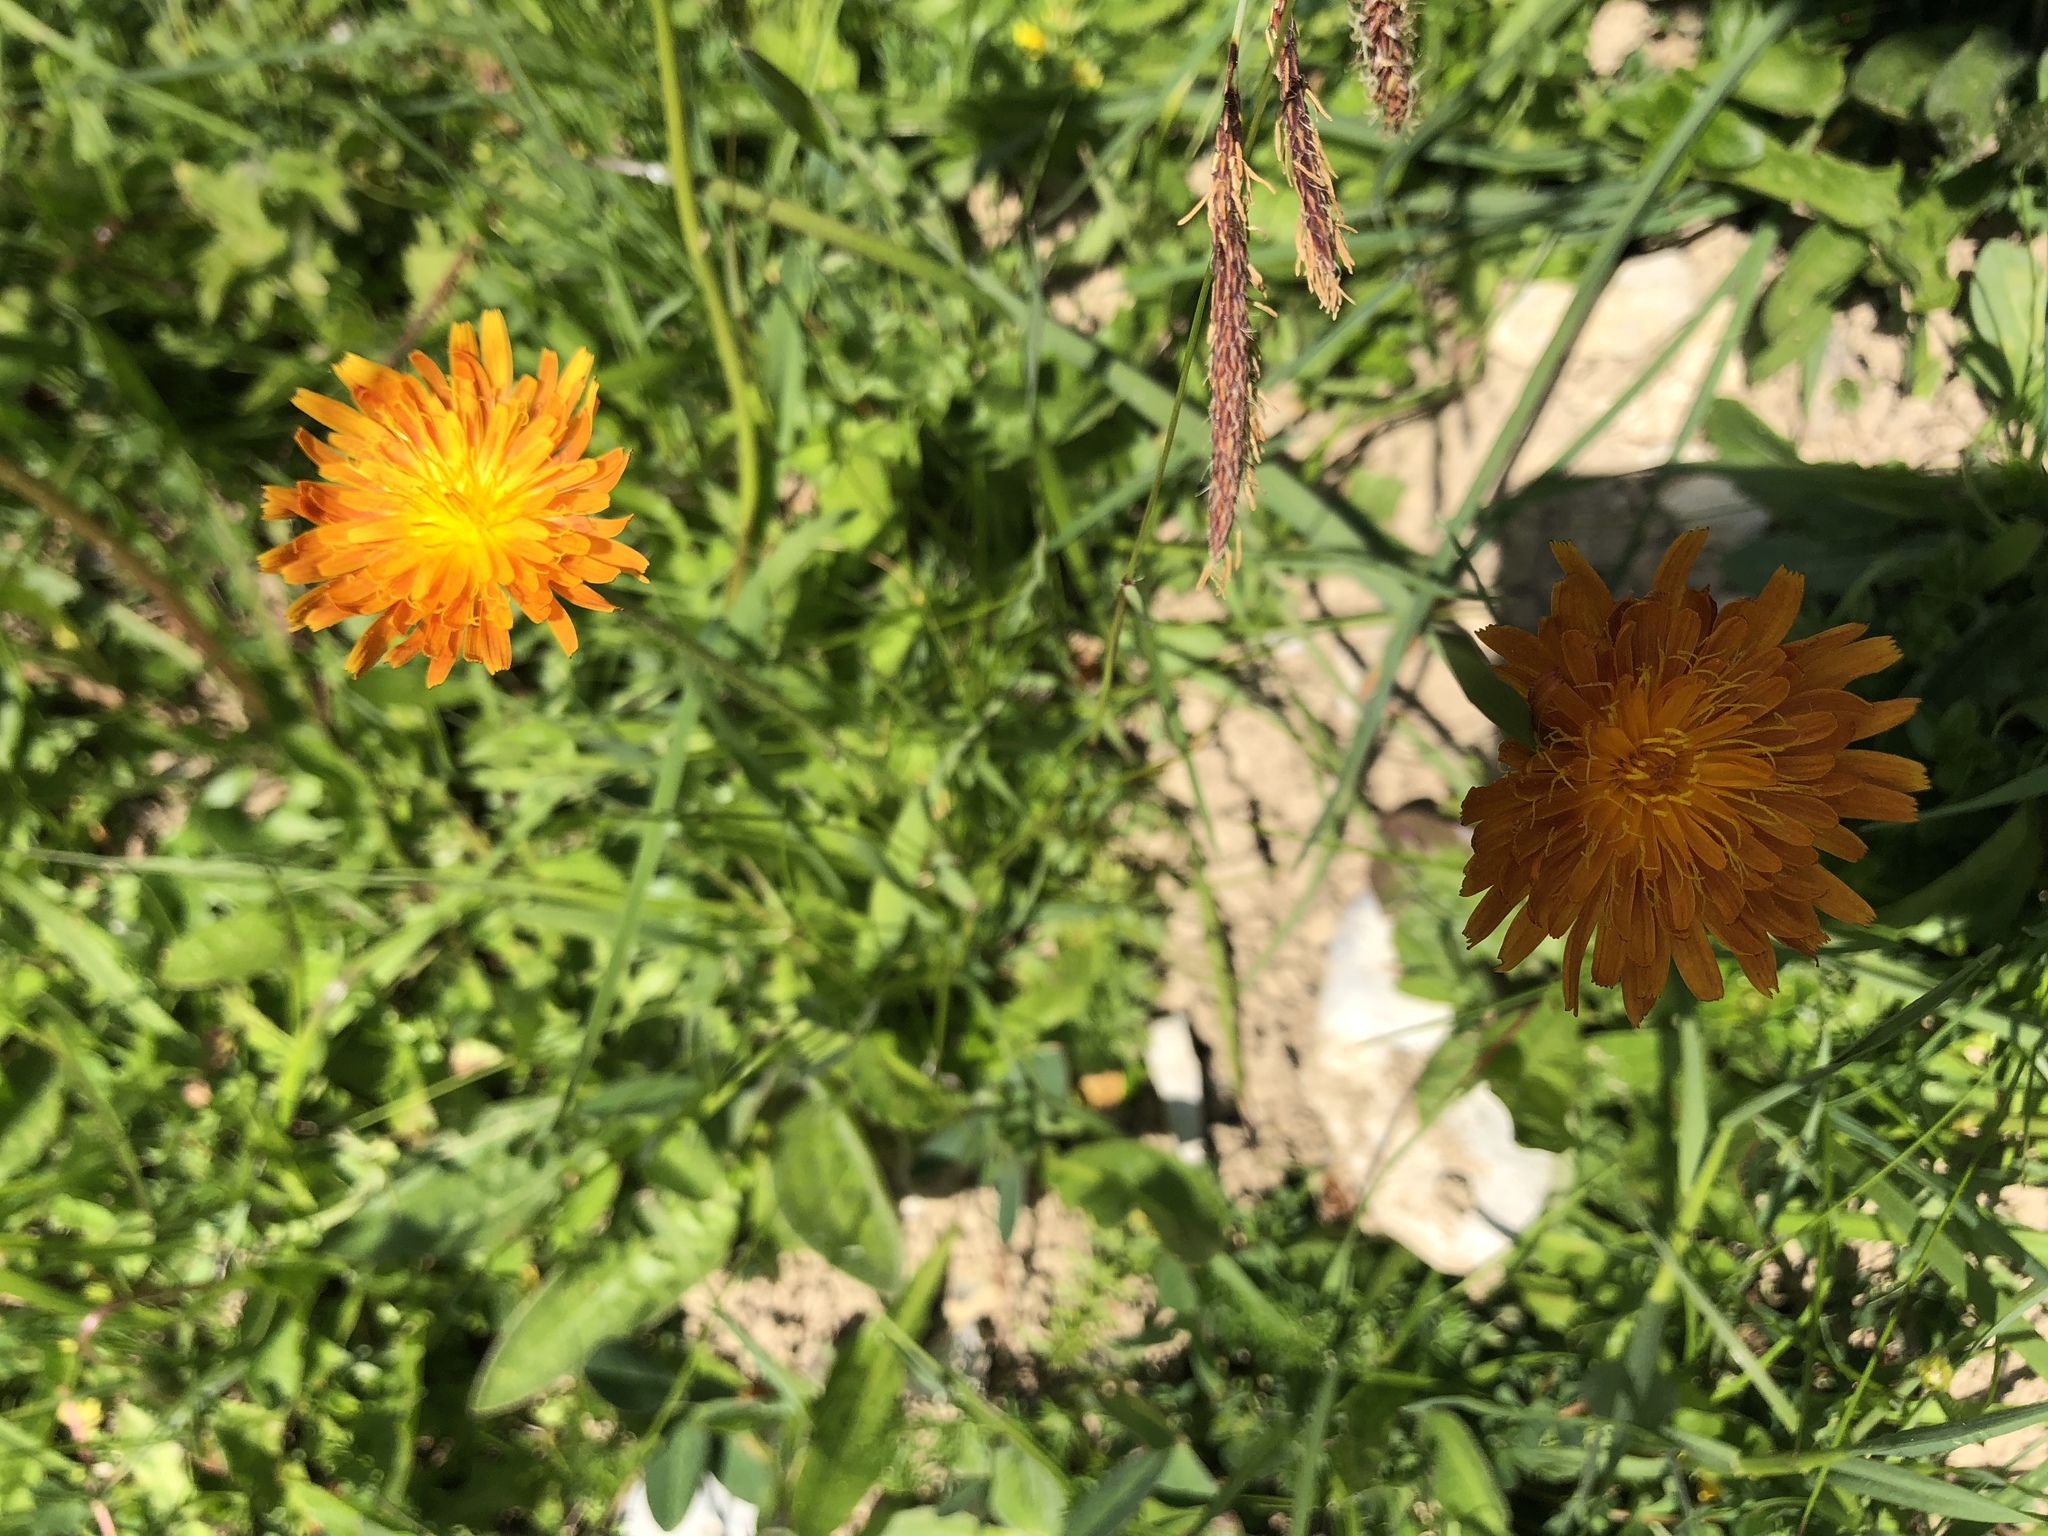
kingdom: Plantae
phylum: Tracheophyta
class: Magnoliopsida
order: Asterales
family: Asteraceae
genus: Crepis
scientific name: Crepis aurea
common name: Golden hawk's-beard
